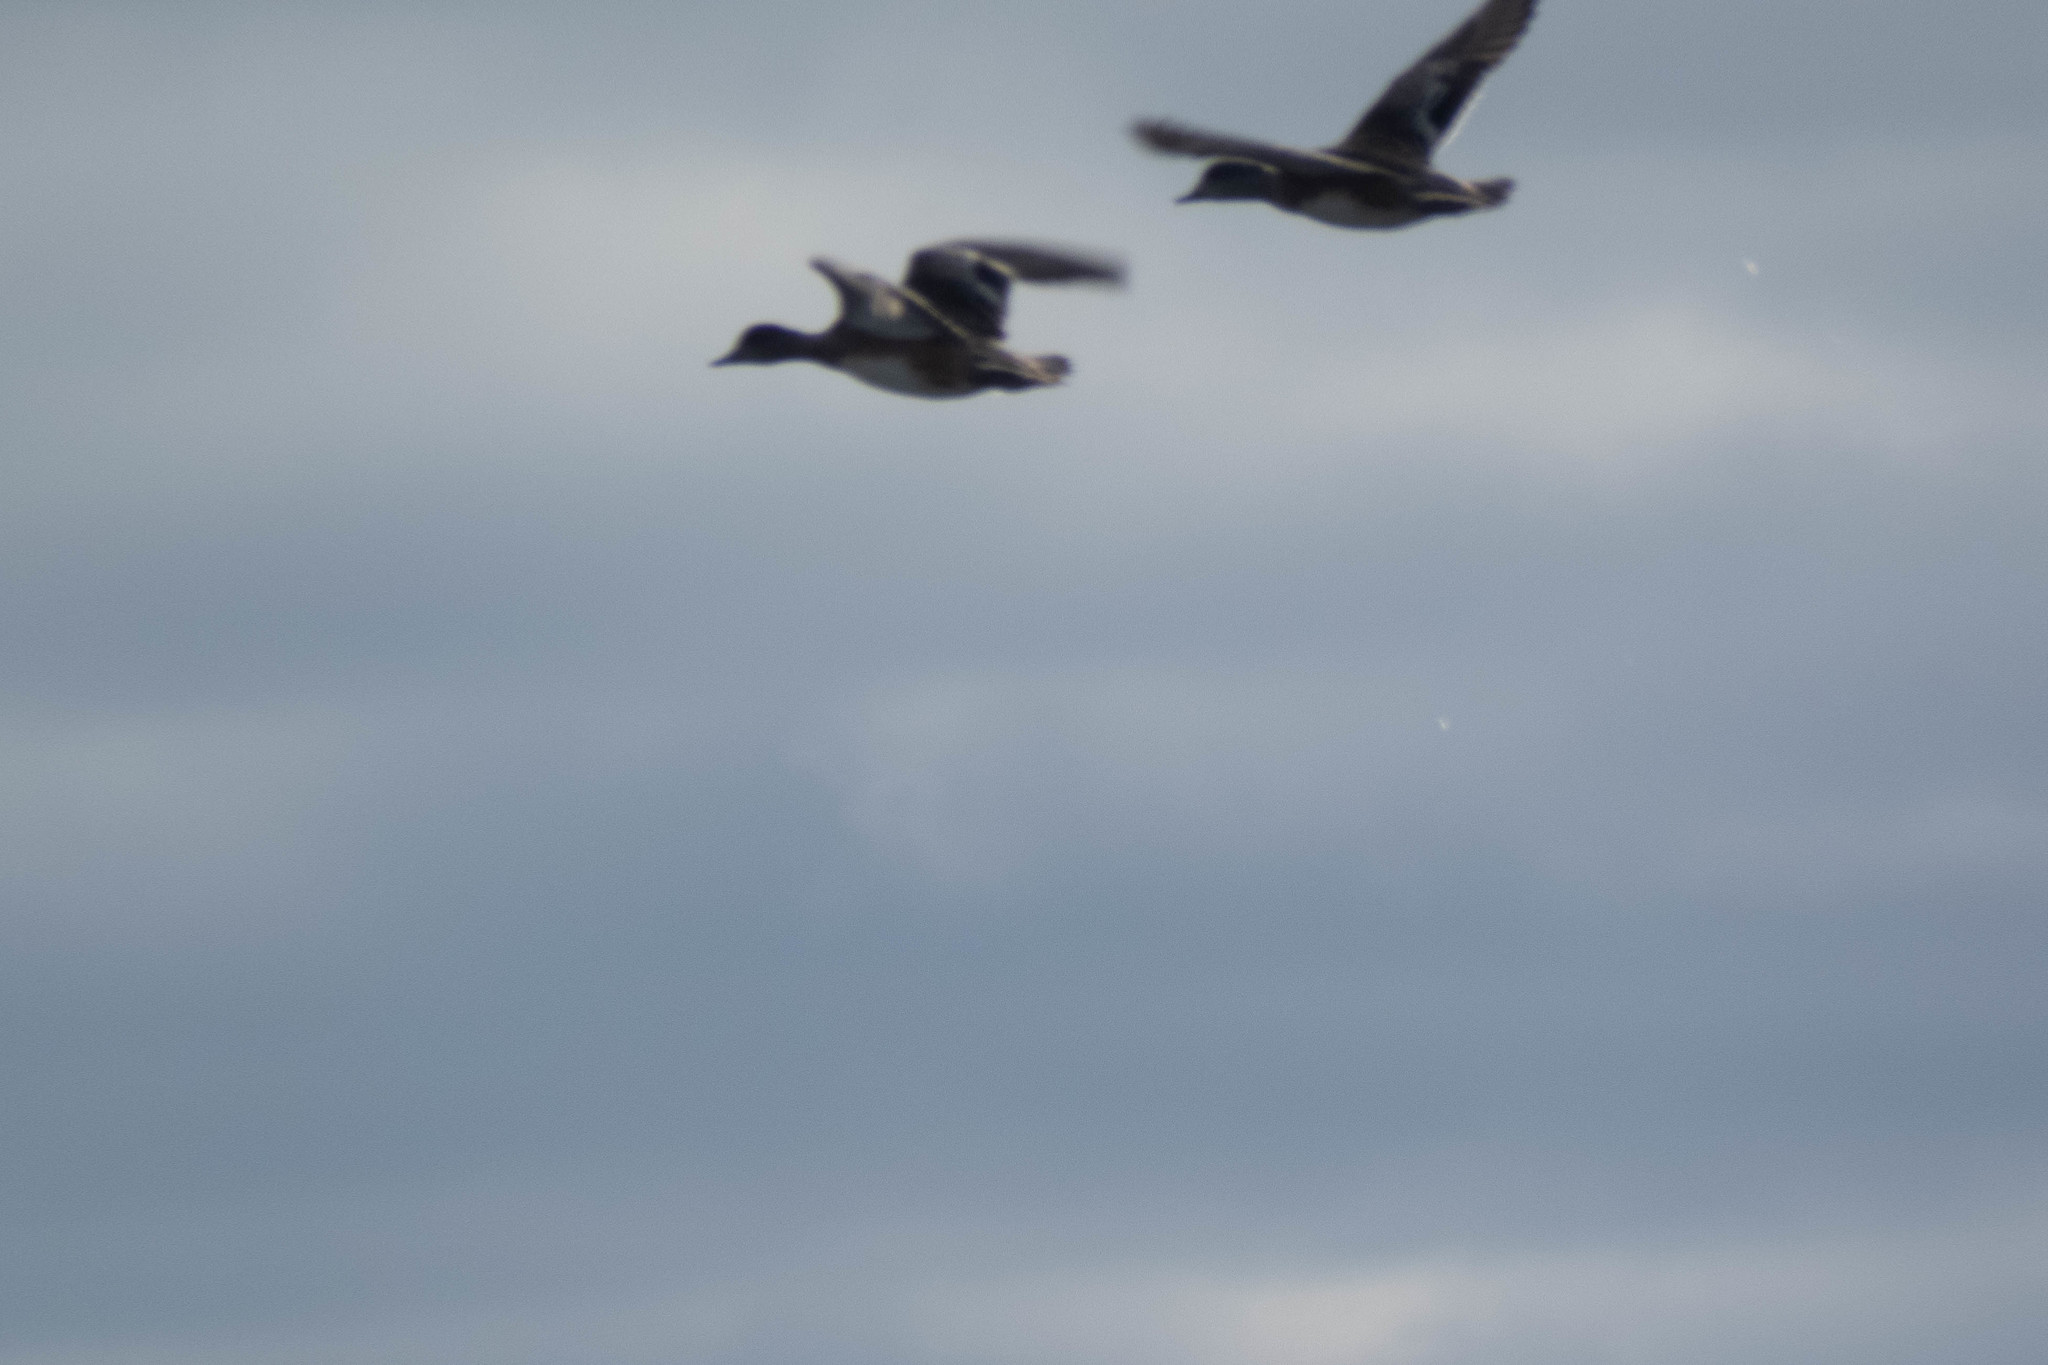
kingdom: Animalia
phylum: Chordata
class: Aves
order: Anseriformes
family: Anatidae
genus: Mareca
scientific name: Mareca americana
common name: American wigeon
